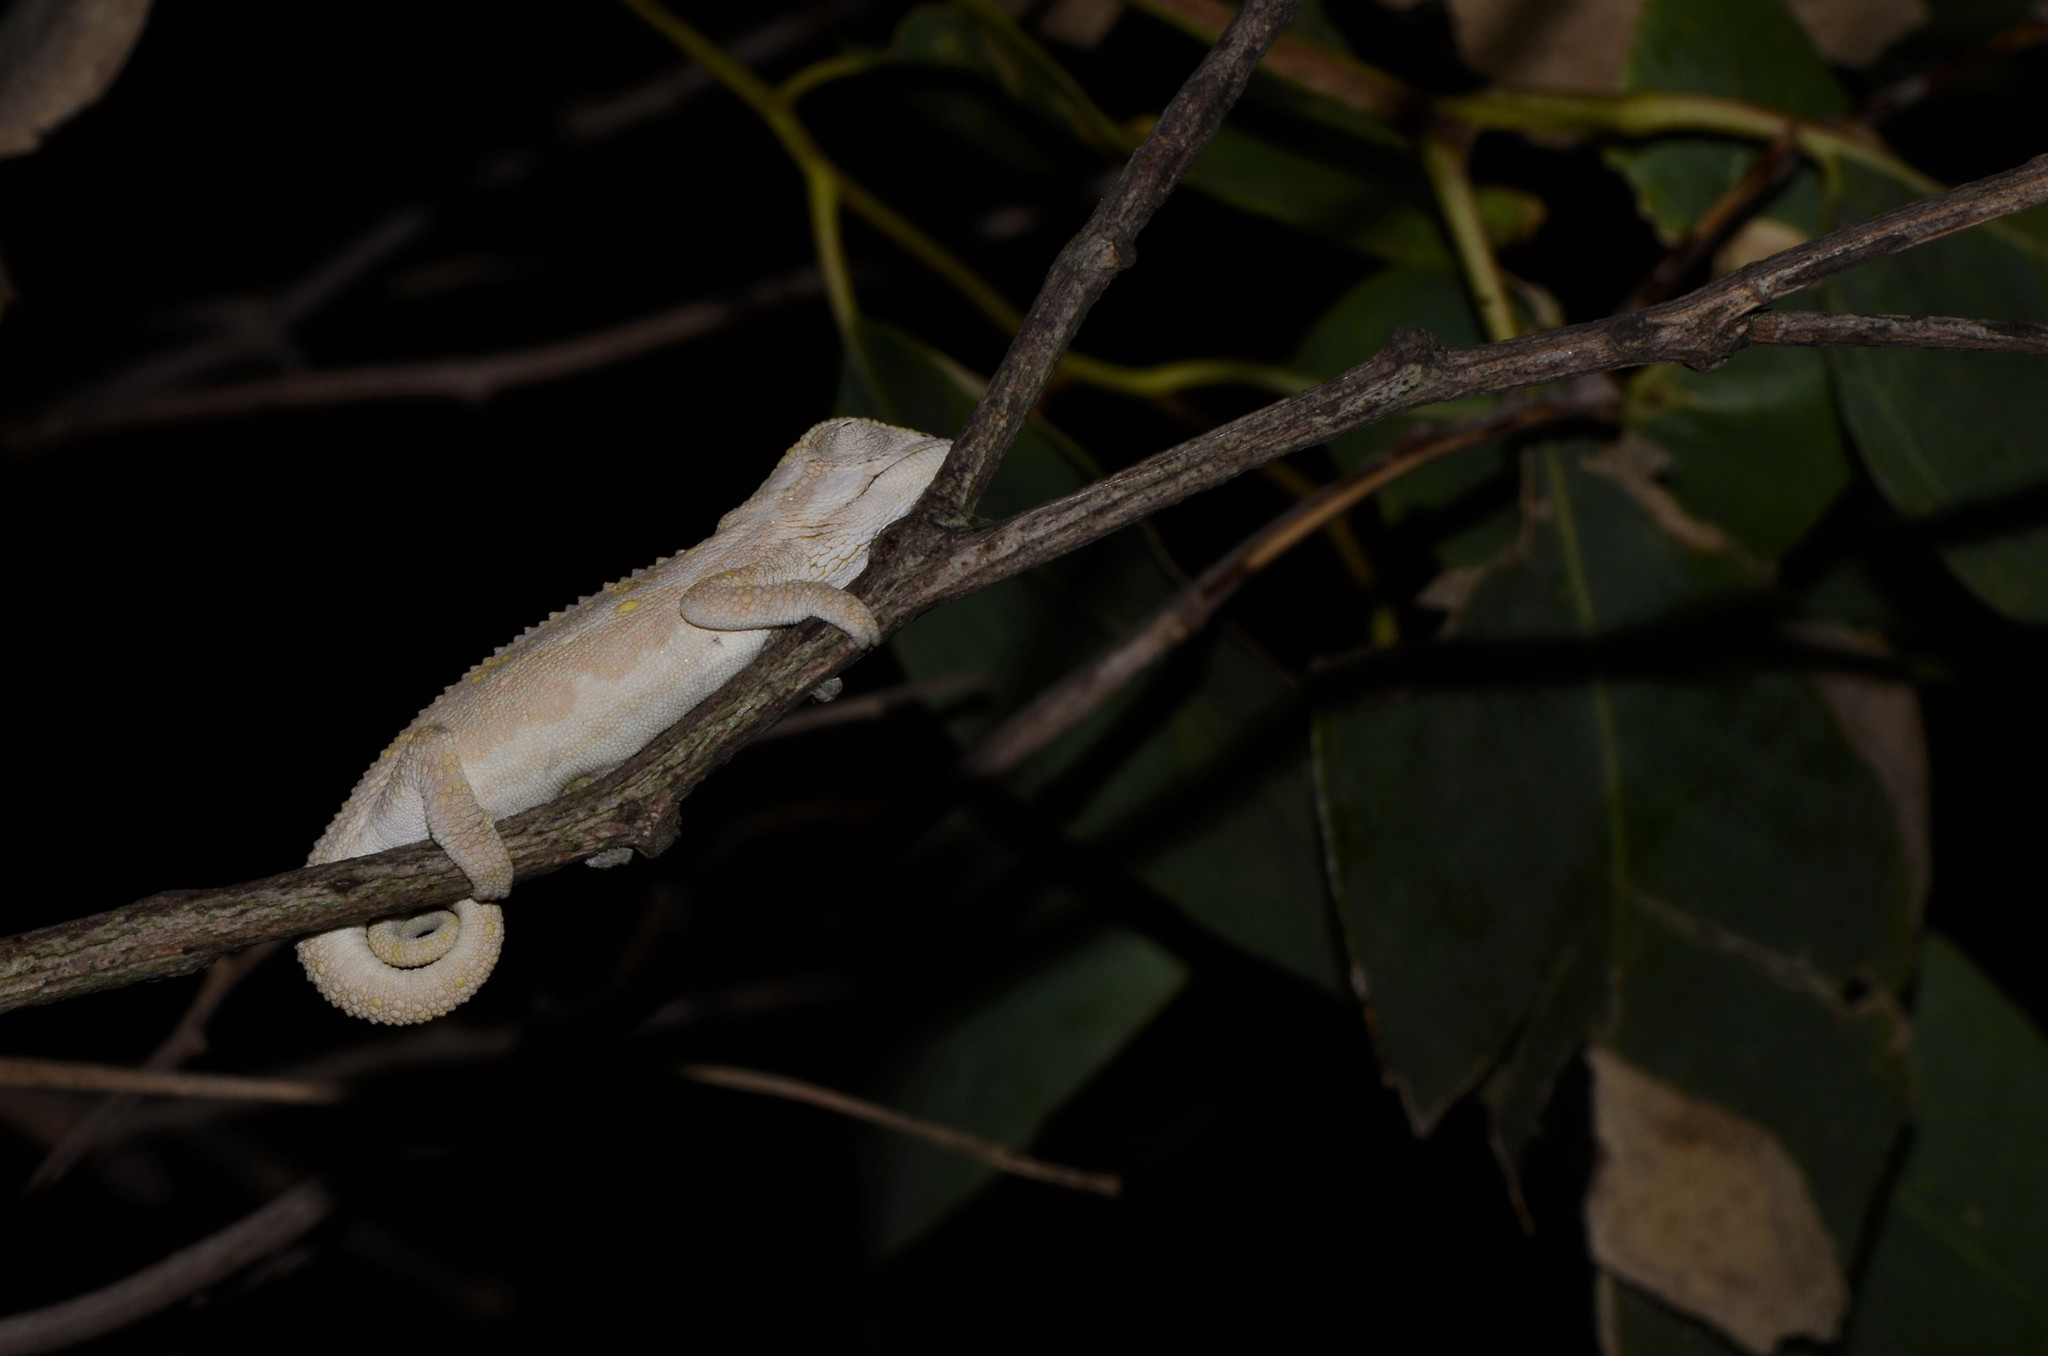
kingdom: Animalia
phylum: Chordata
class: Squamata
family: Chamaeleonidae
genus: Bradypodion
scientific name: Bradypodion pumilum
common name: Cape dwarf chameleon
